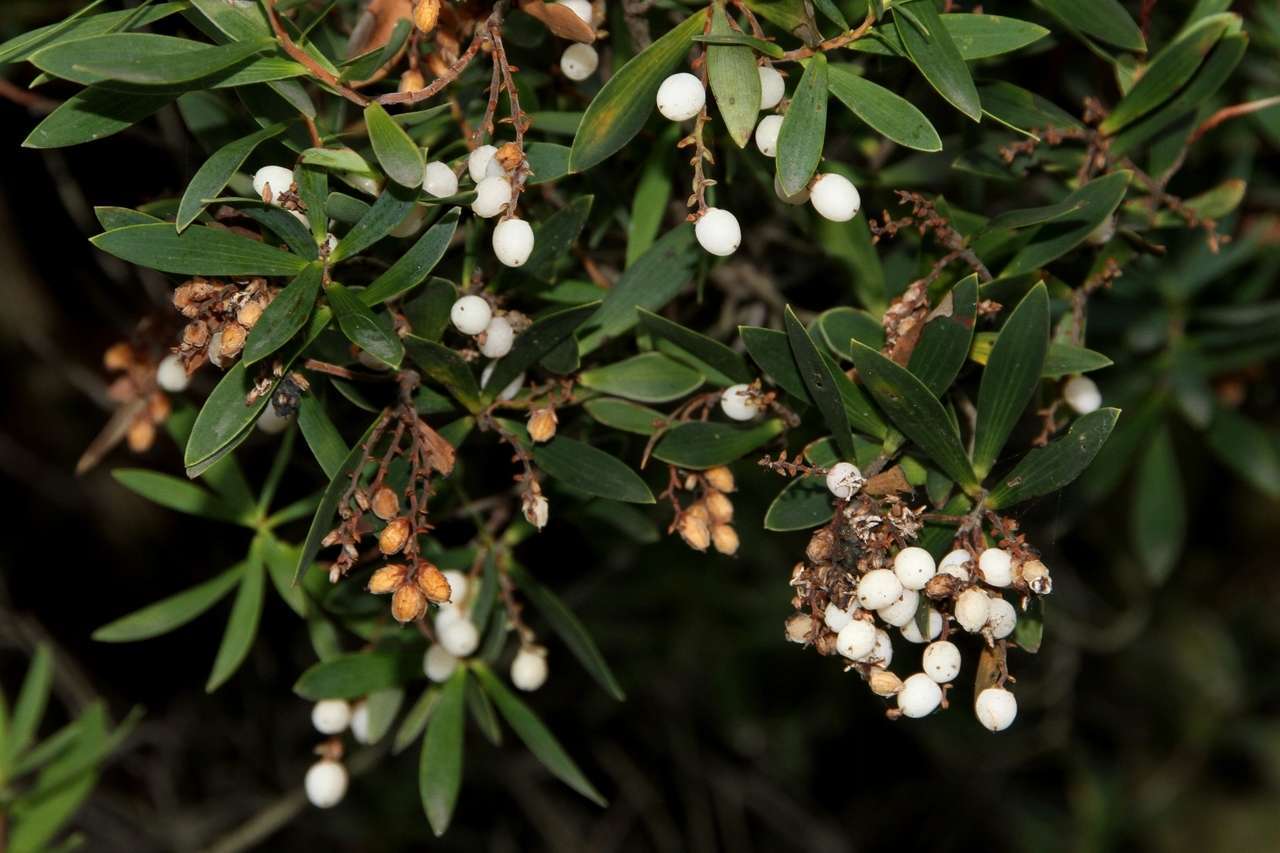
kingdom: Plantae
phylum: Tracheophyta
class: Magnoliopsida
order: Ericales
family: Ericaceae
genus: Leptecophylla
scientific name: Leptecophylla parvifolia
